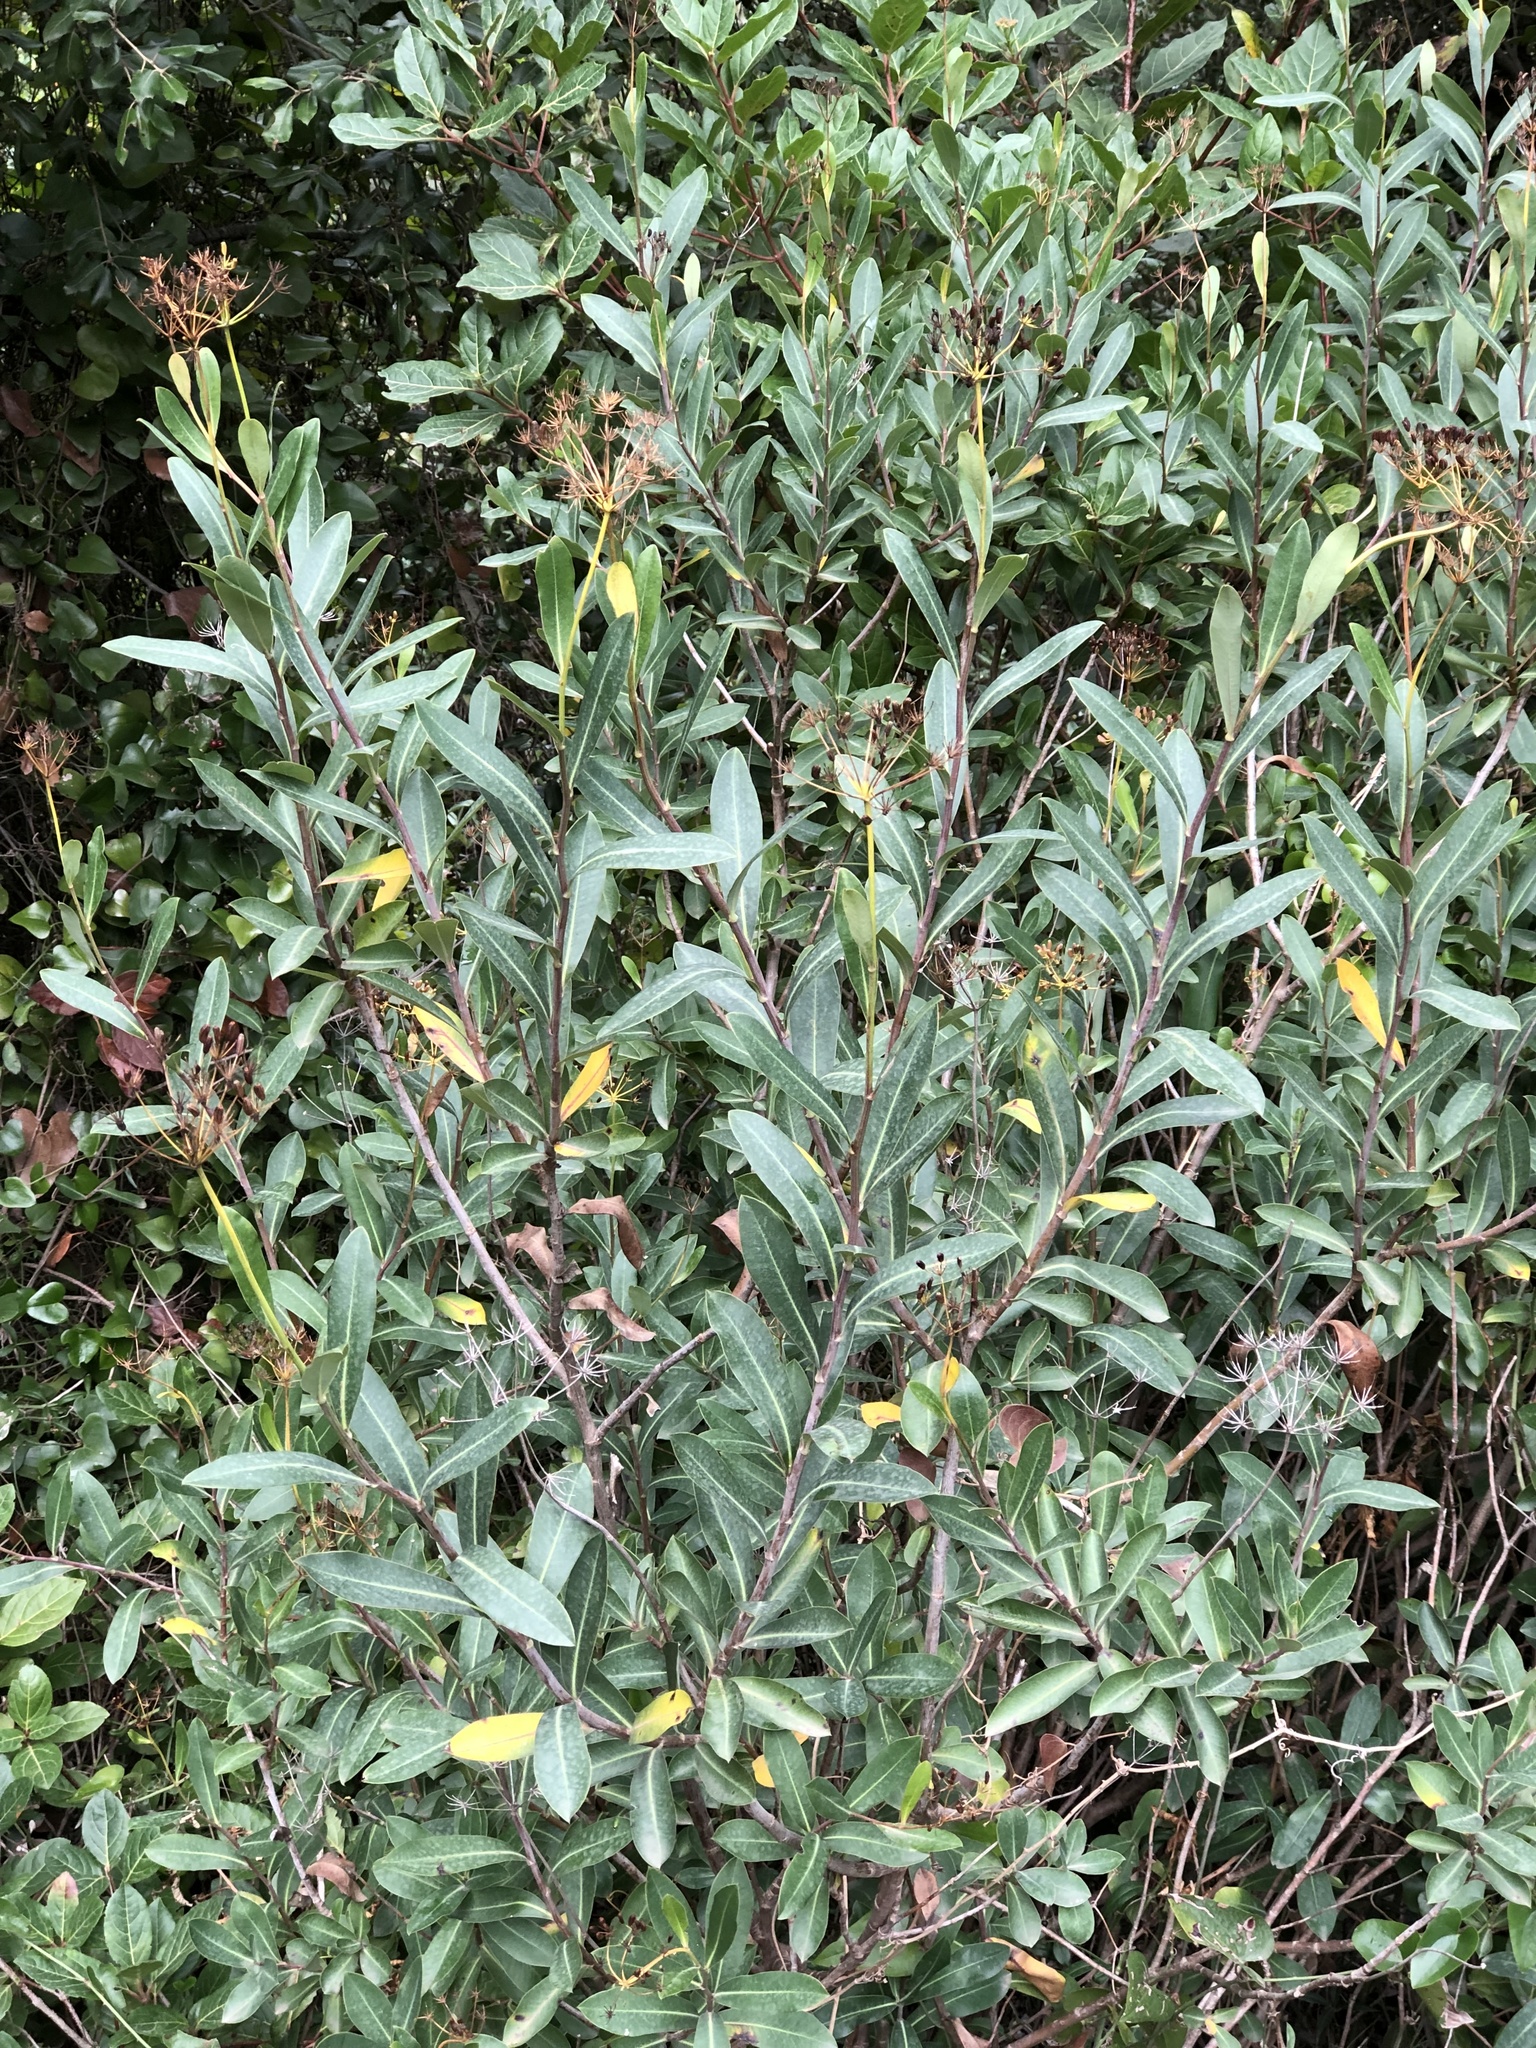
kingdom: Plantae
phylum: Tracheophyta
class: Magnoliopsida
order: Apiales
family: Apiaceae
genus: Bupleurum
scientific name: Bupleurum fruticosum
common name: Shrubby hare's-ear
